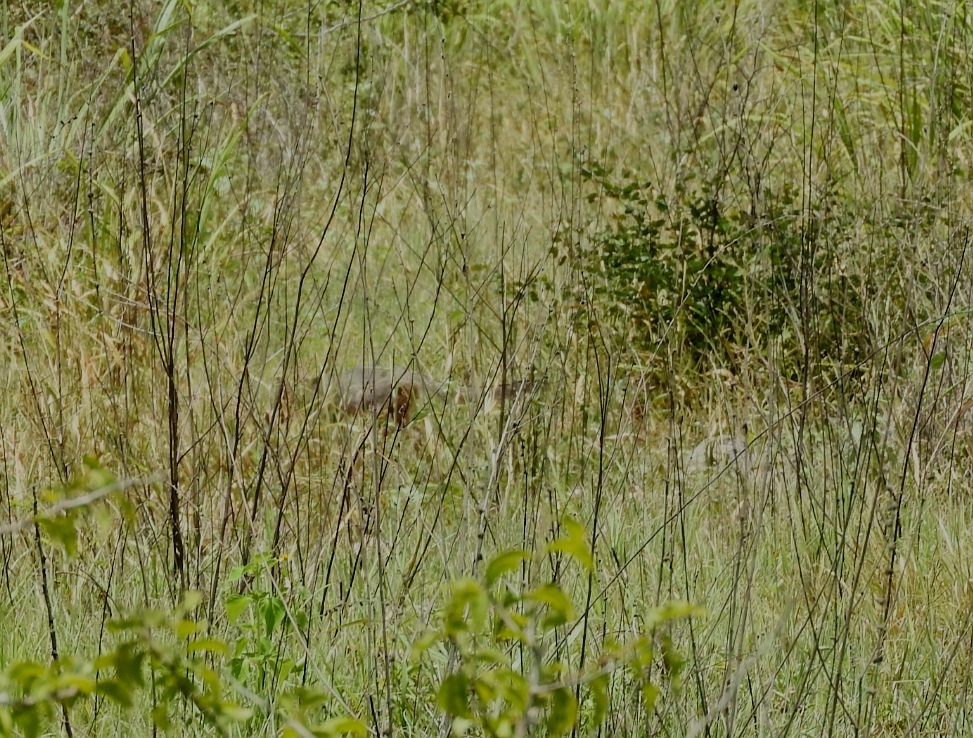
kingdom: Animalia
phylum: Chordata
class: Mammalia
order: Carnivora
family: Canidae
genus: Urocyon
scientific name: Urocyon cinereoargenteus
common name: Gray fox
